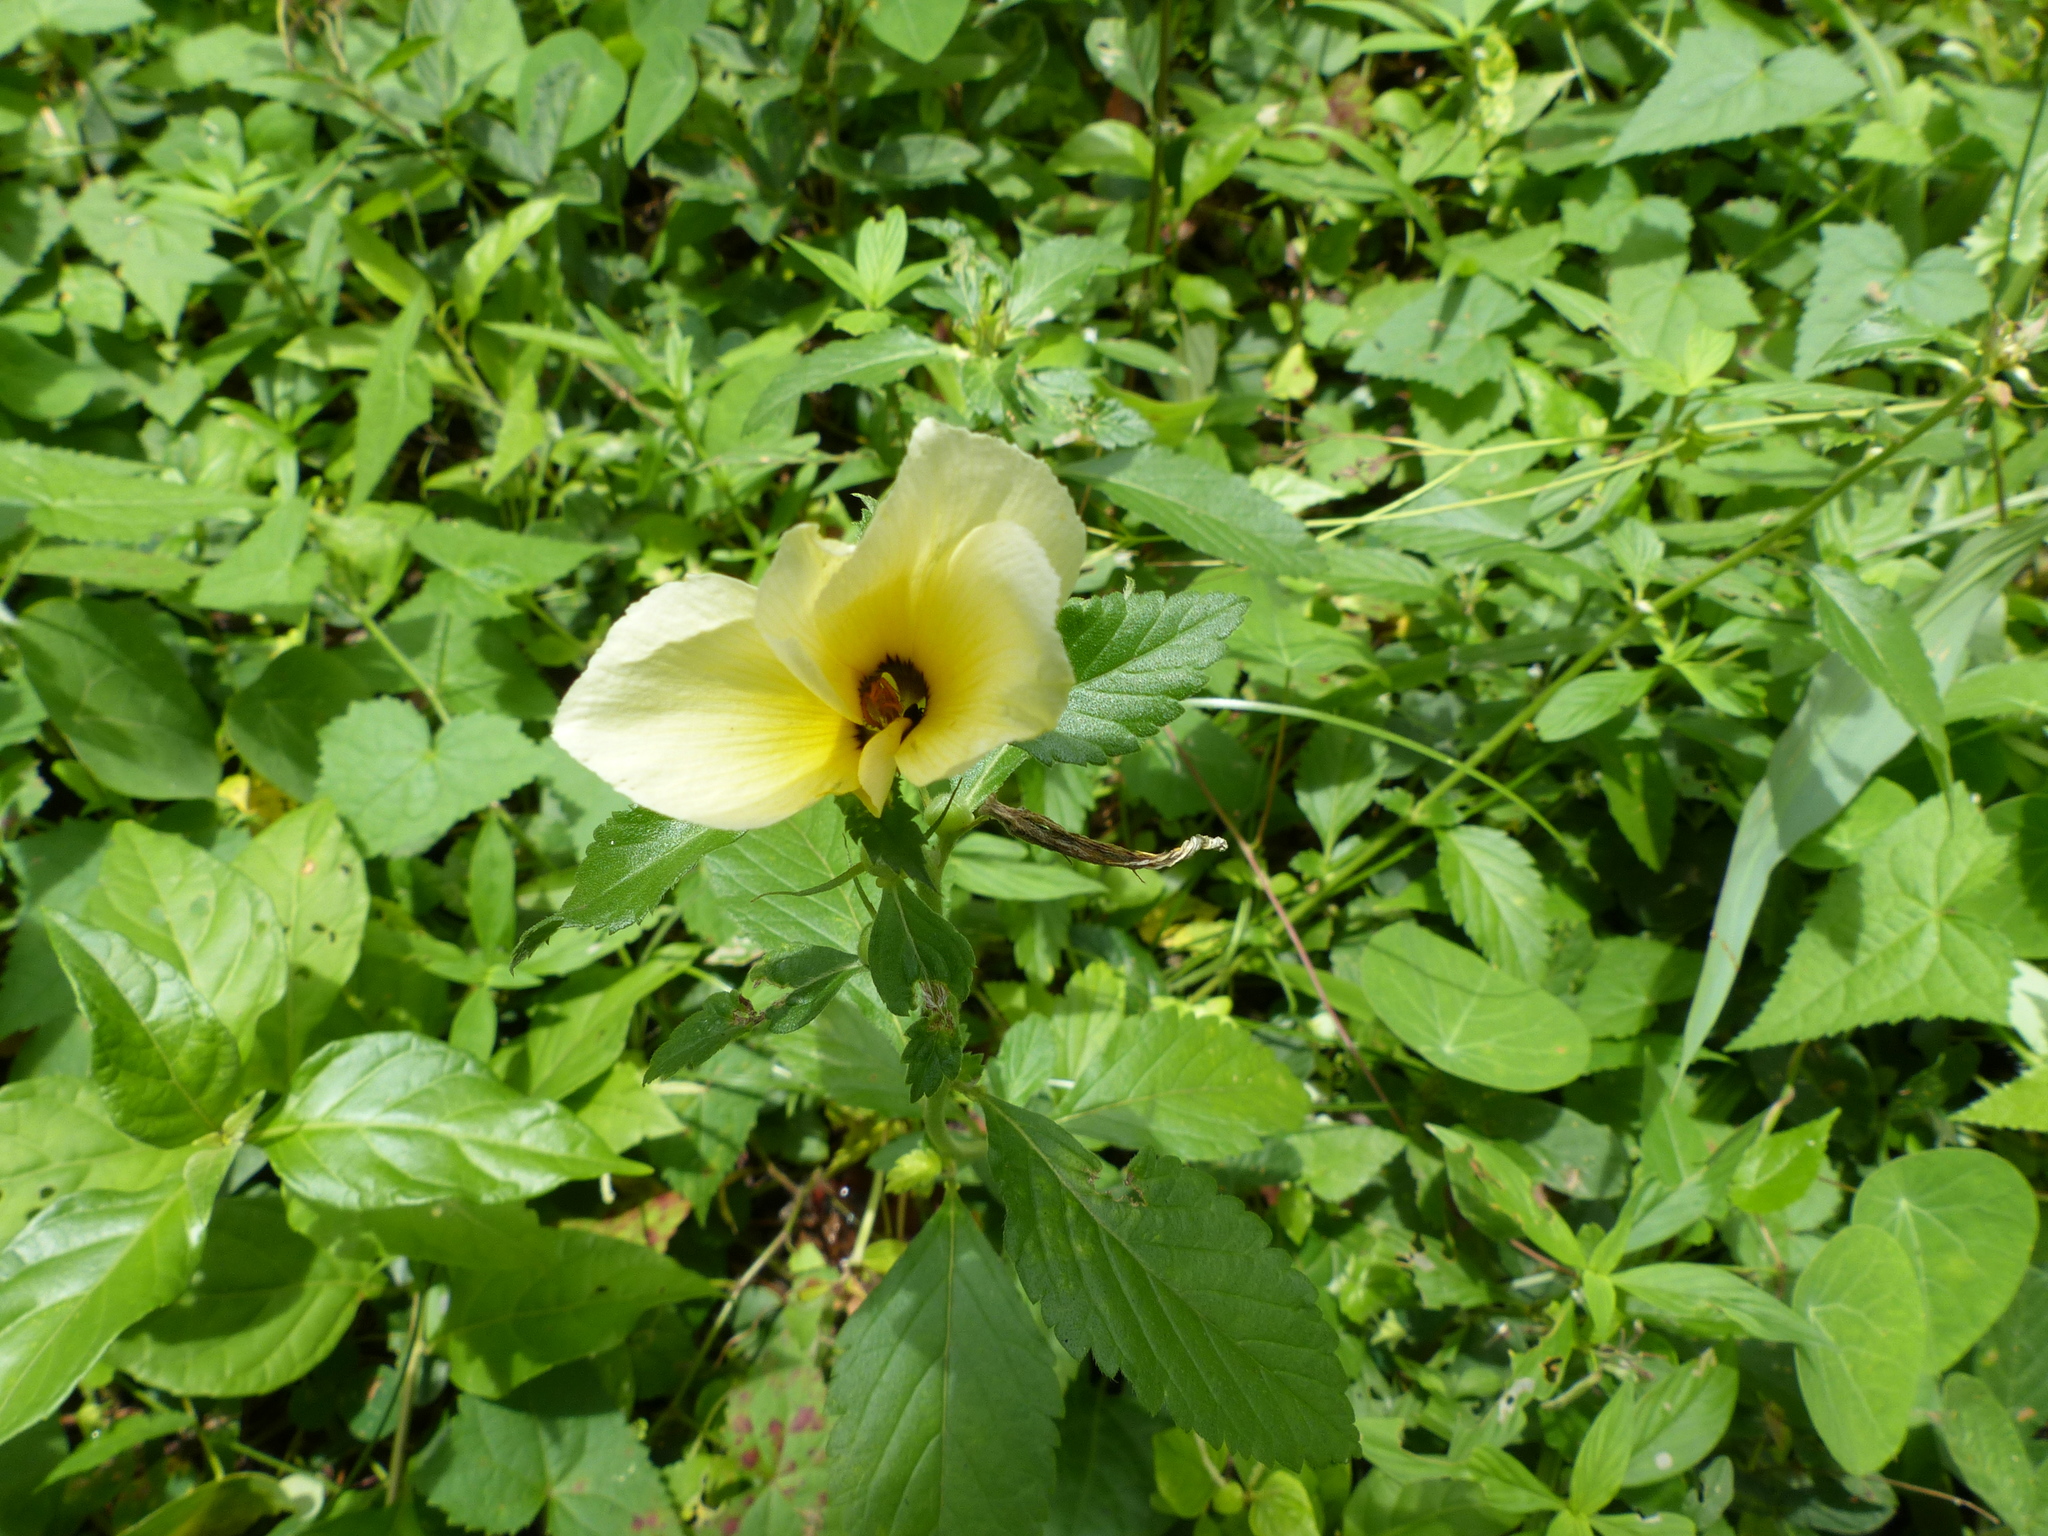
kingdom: Plantae
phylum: Tracheophyta
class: Magnoliopsida
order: Malpighiales
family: Turneraceae
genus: Turnera
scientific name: Turnera subulata
